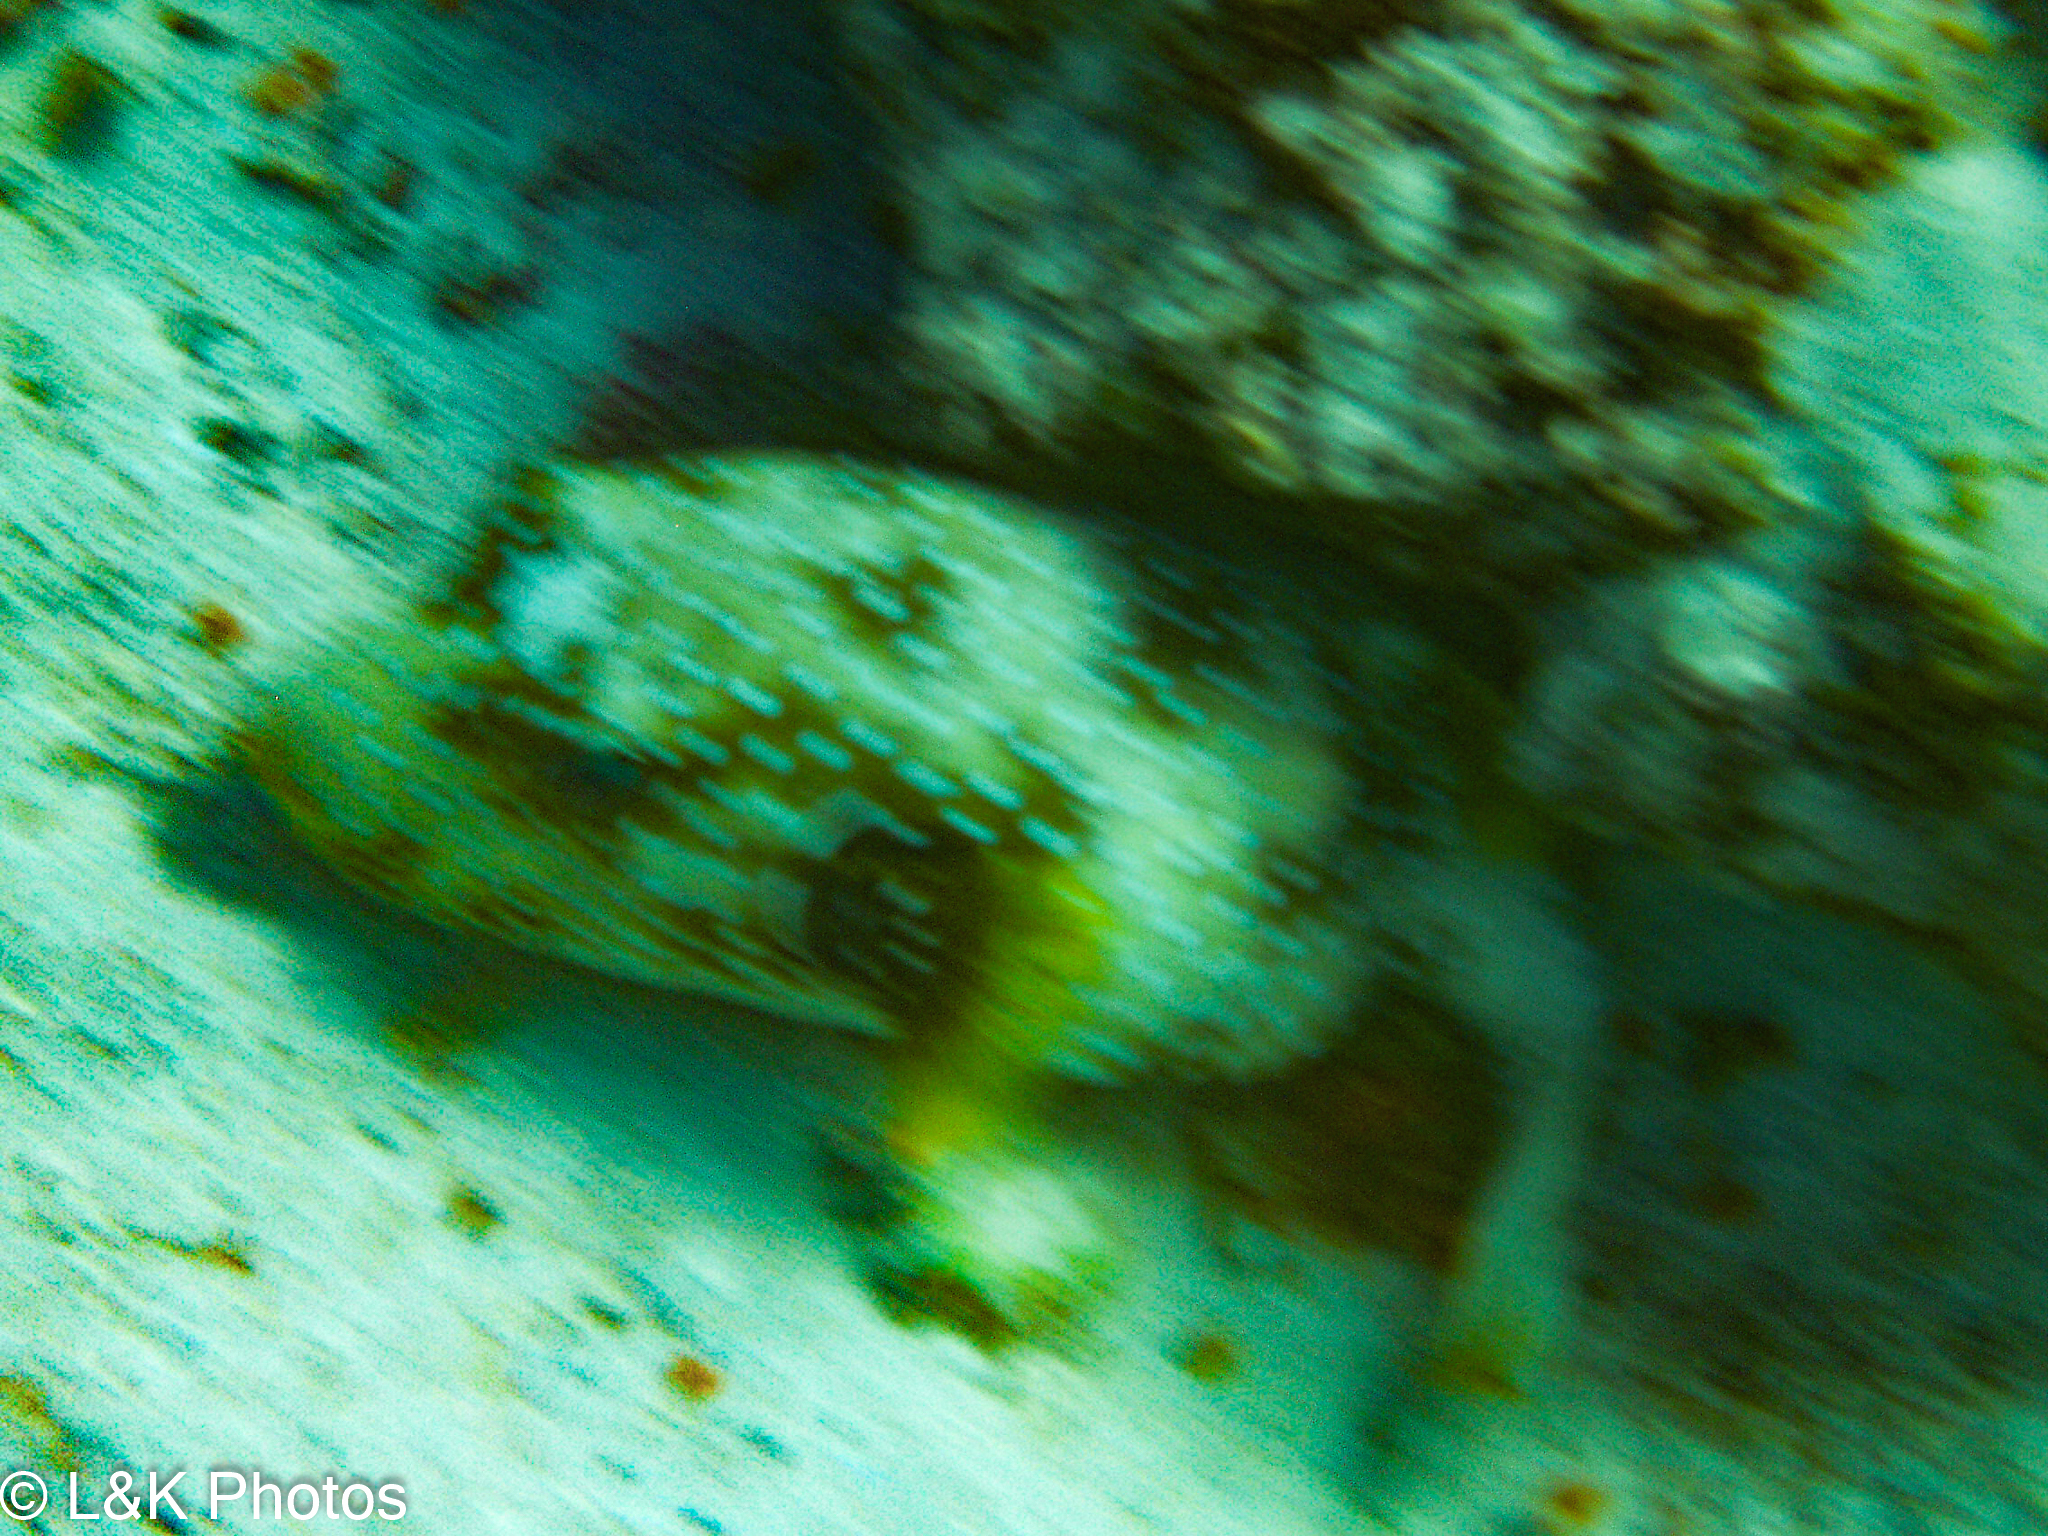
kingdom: Animalia
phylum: Chordata
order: Tetraodontiformes
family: Tetraodontidae
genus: Arothron
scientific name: Arothron hispidus
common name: Stripebelly puffer
